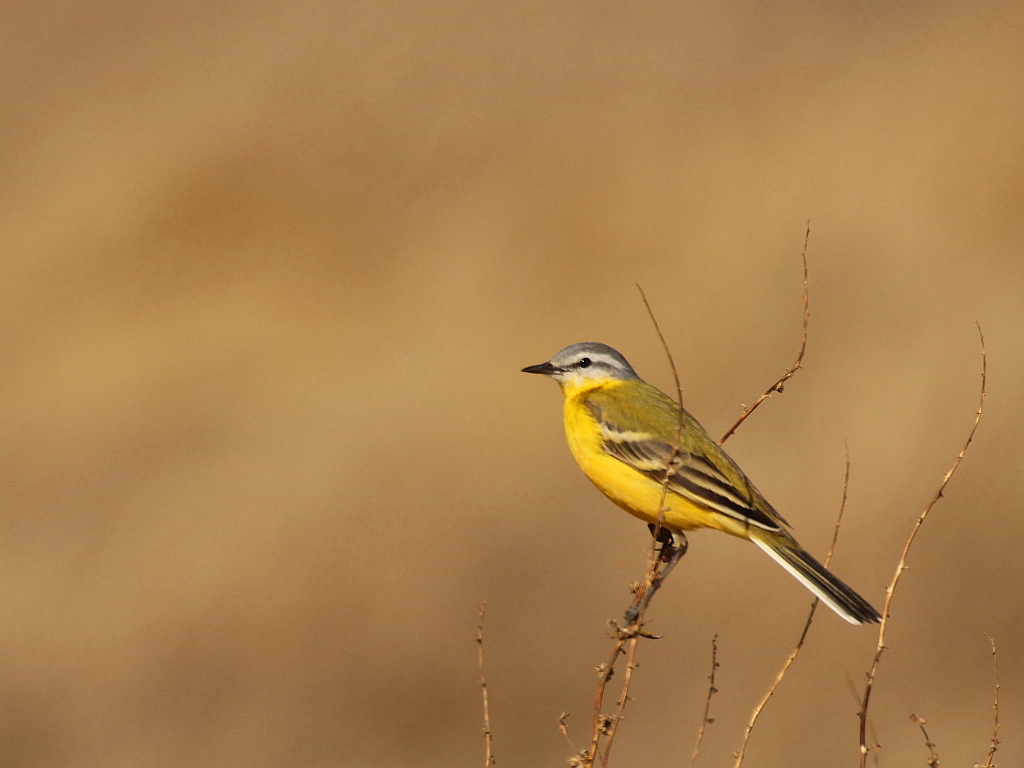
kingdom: Animalia
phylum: Chordata
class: Aves
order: Passeriformes
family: Motacillidae
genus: Motacilla
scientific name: Motacilla flava
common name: Western yellow wagtail
